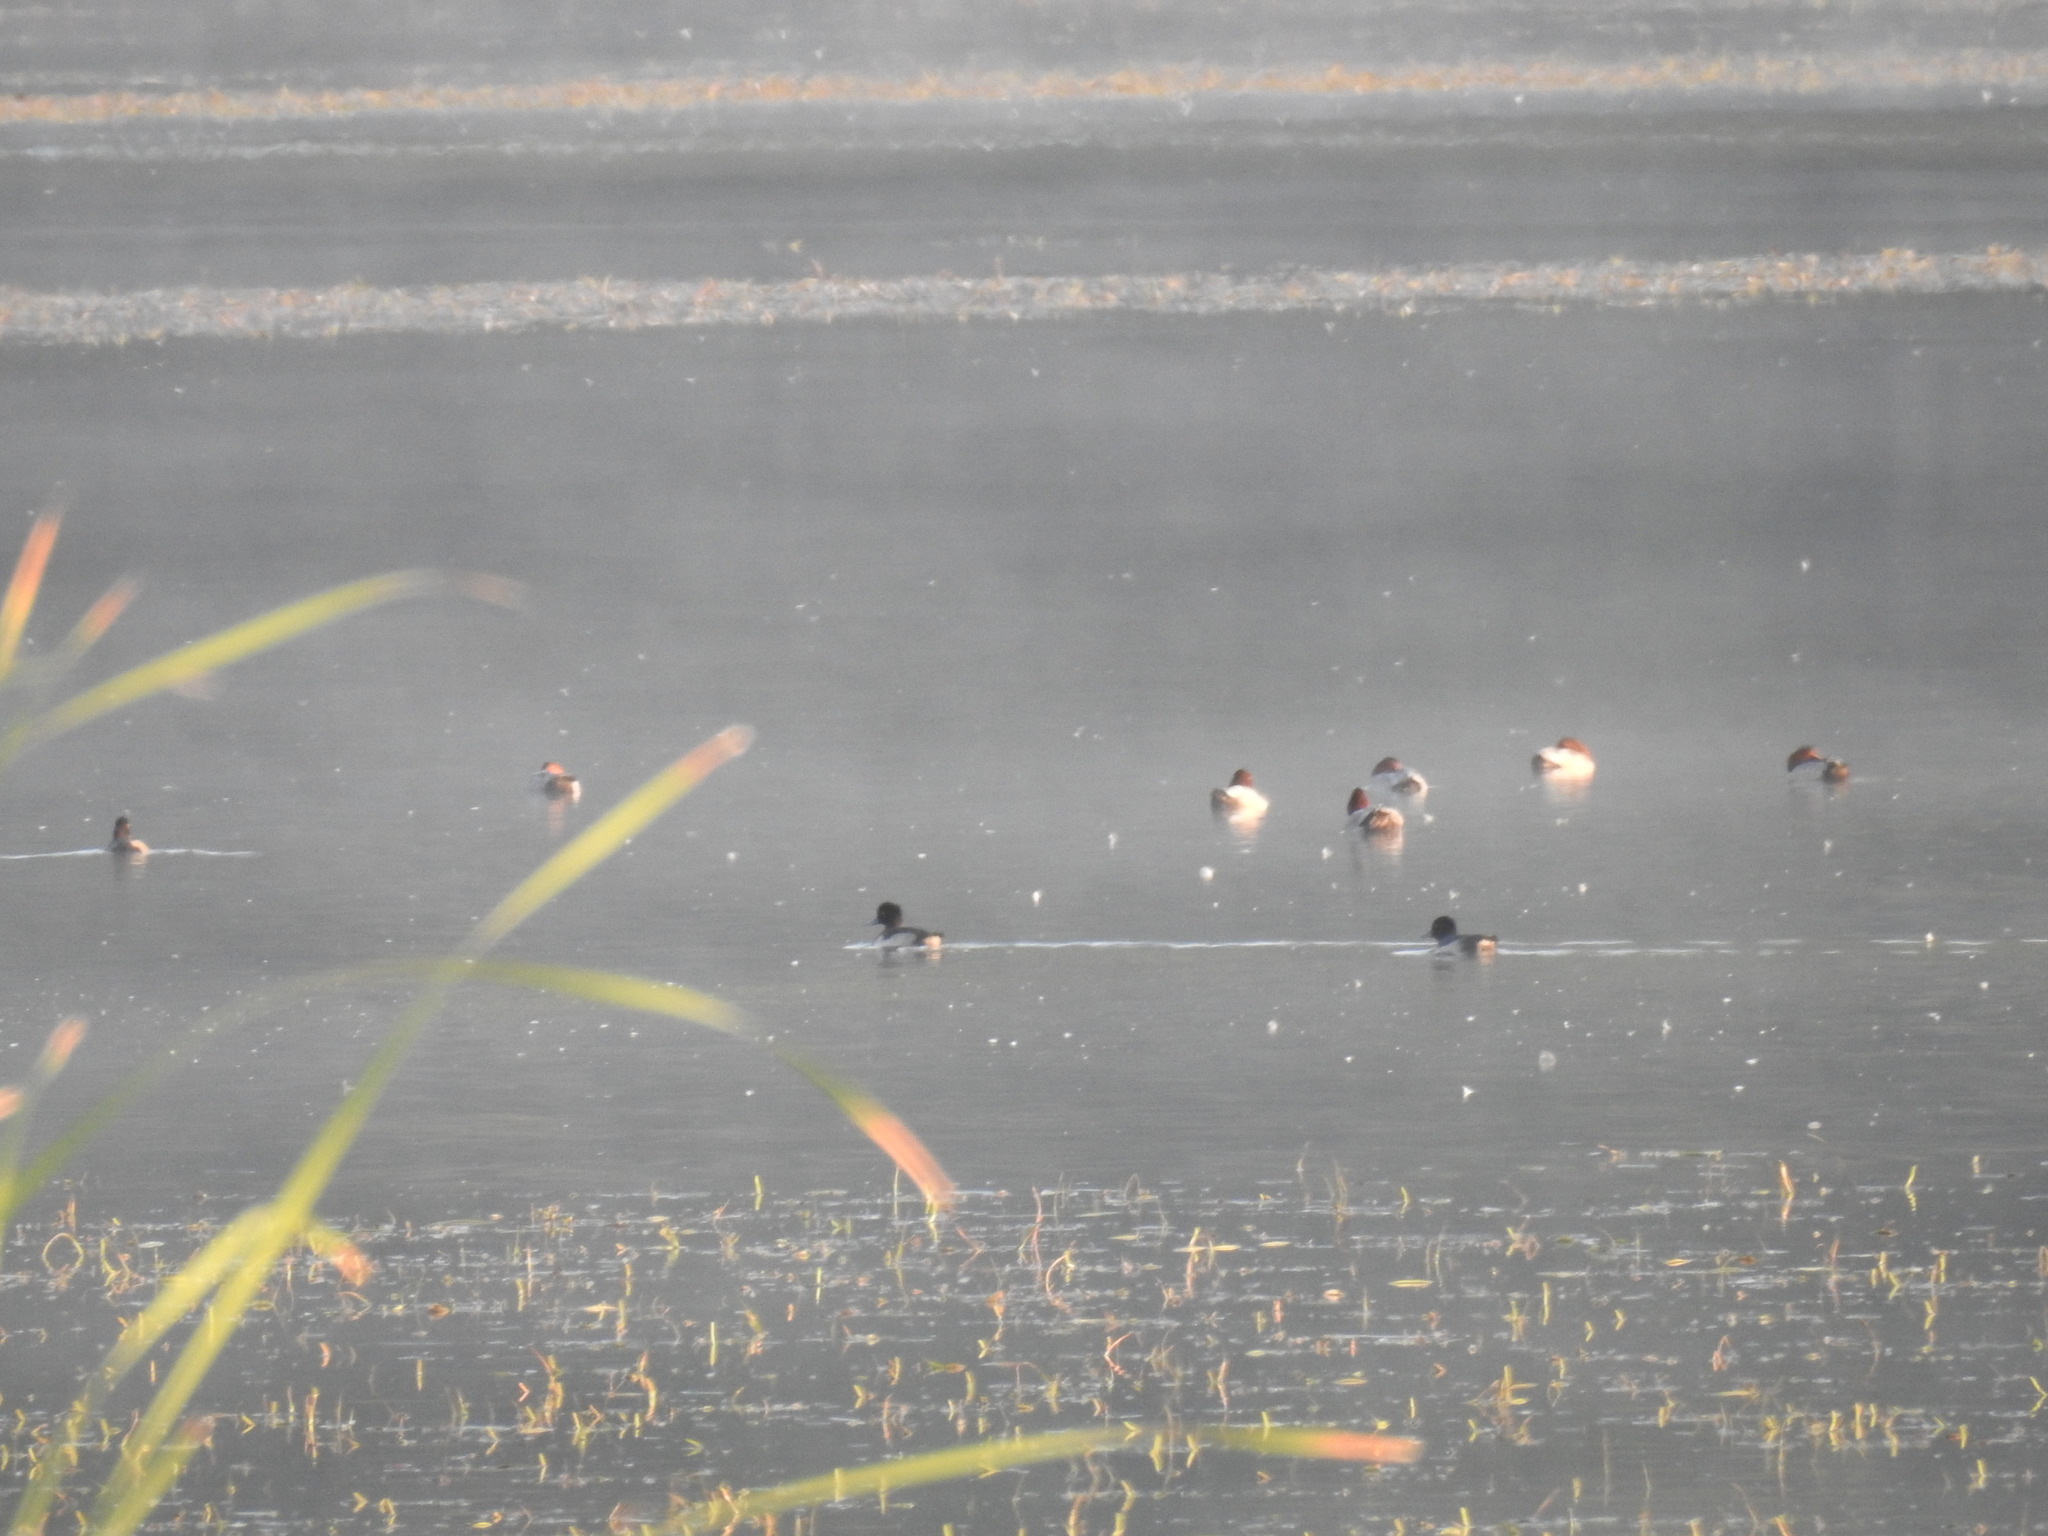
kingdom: Animalia
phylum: Chordata
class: Aves
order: Anseriformes
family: Anatidae
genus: Aythya
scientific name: Aythya fuligula
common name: Tufted duck
